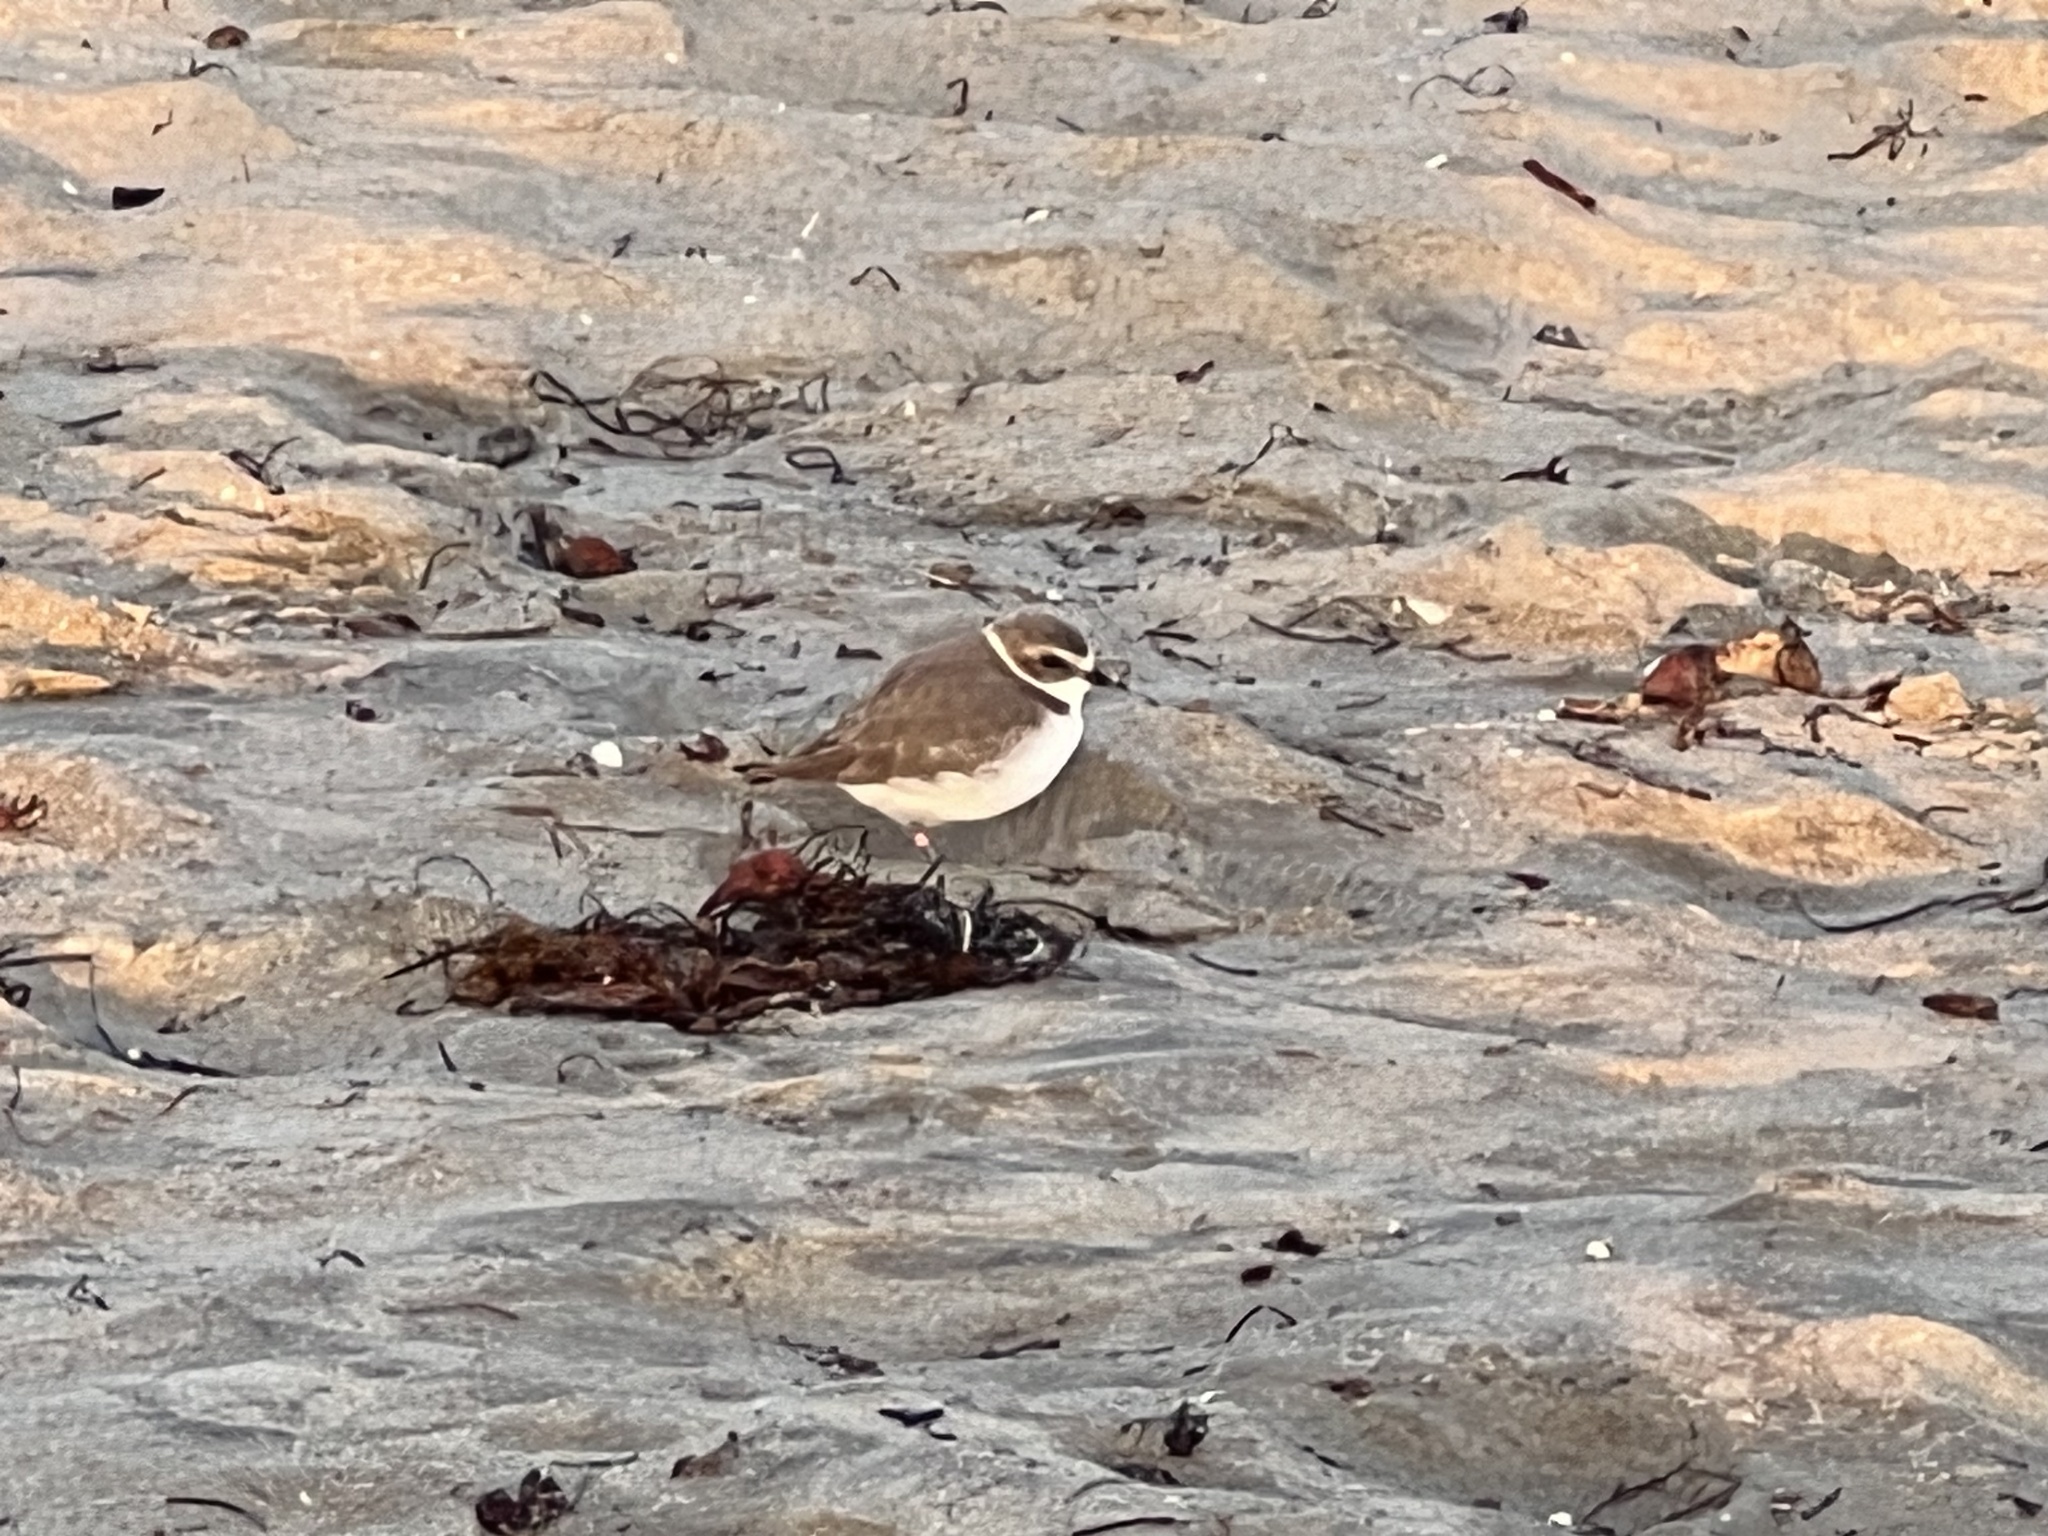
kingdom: Animalia
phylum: Chordata
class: Aves
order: Charadriiformes
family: Charadriidae
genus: Anarhynchus
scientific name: Anarhynchus
